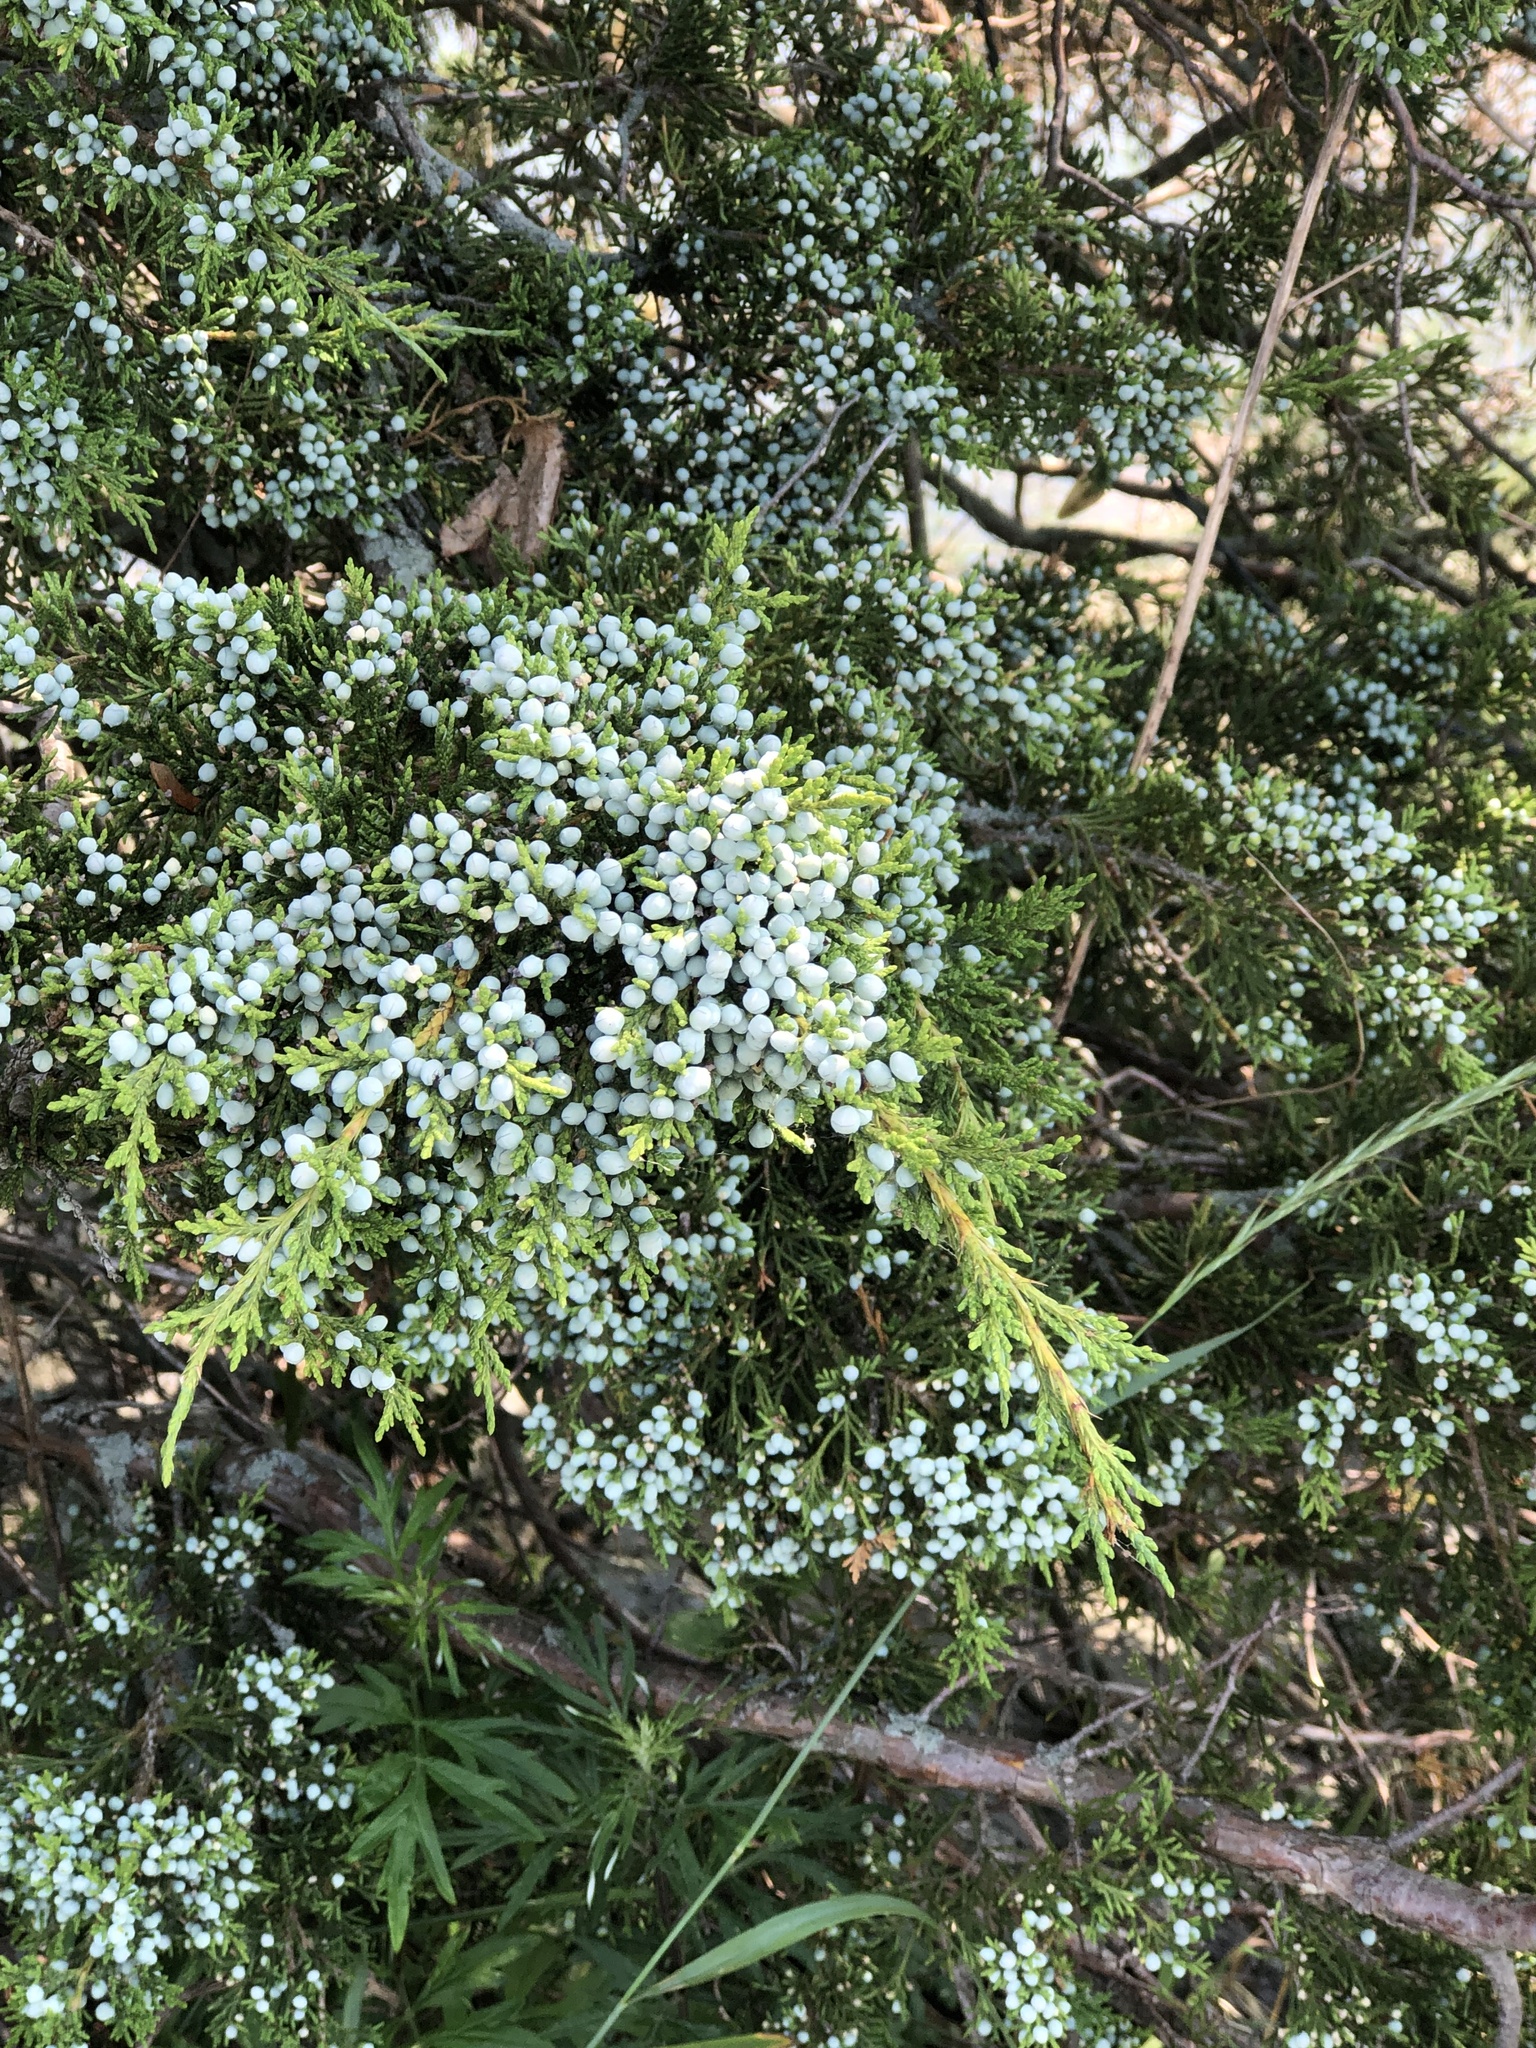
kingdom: Plantae
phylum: Tracheophyta
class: Pinopsida
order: Pinales
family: Cupressaceae
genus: Juniperus
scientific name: Juniperus virginiana
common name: Red juniper
